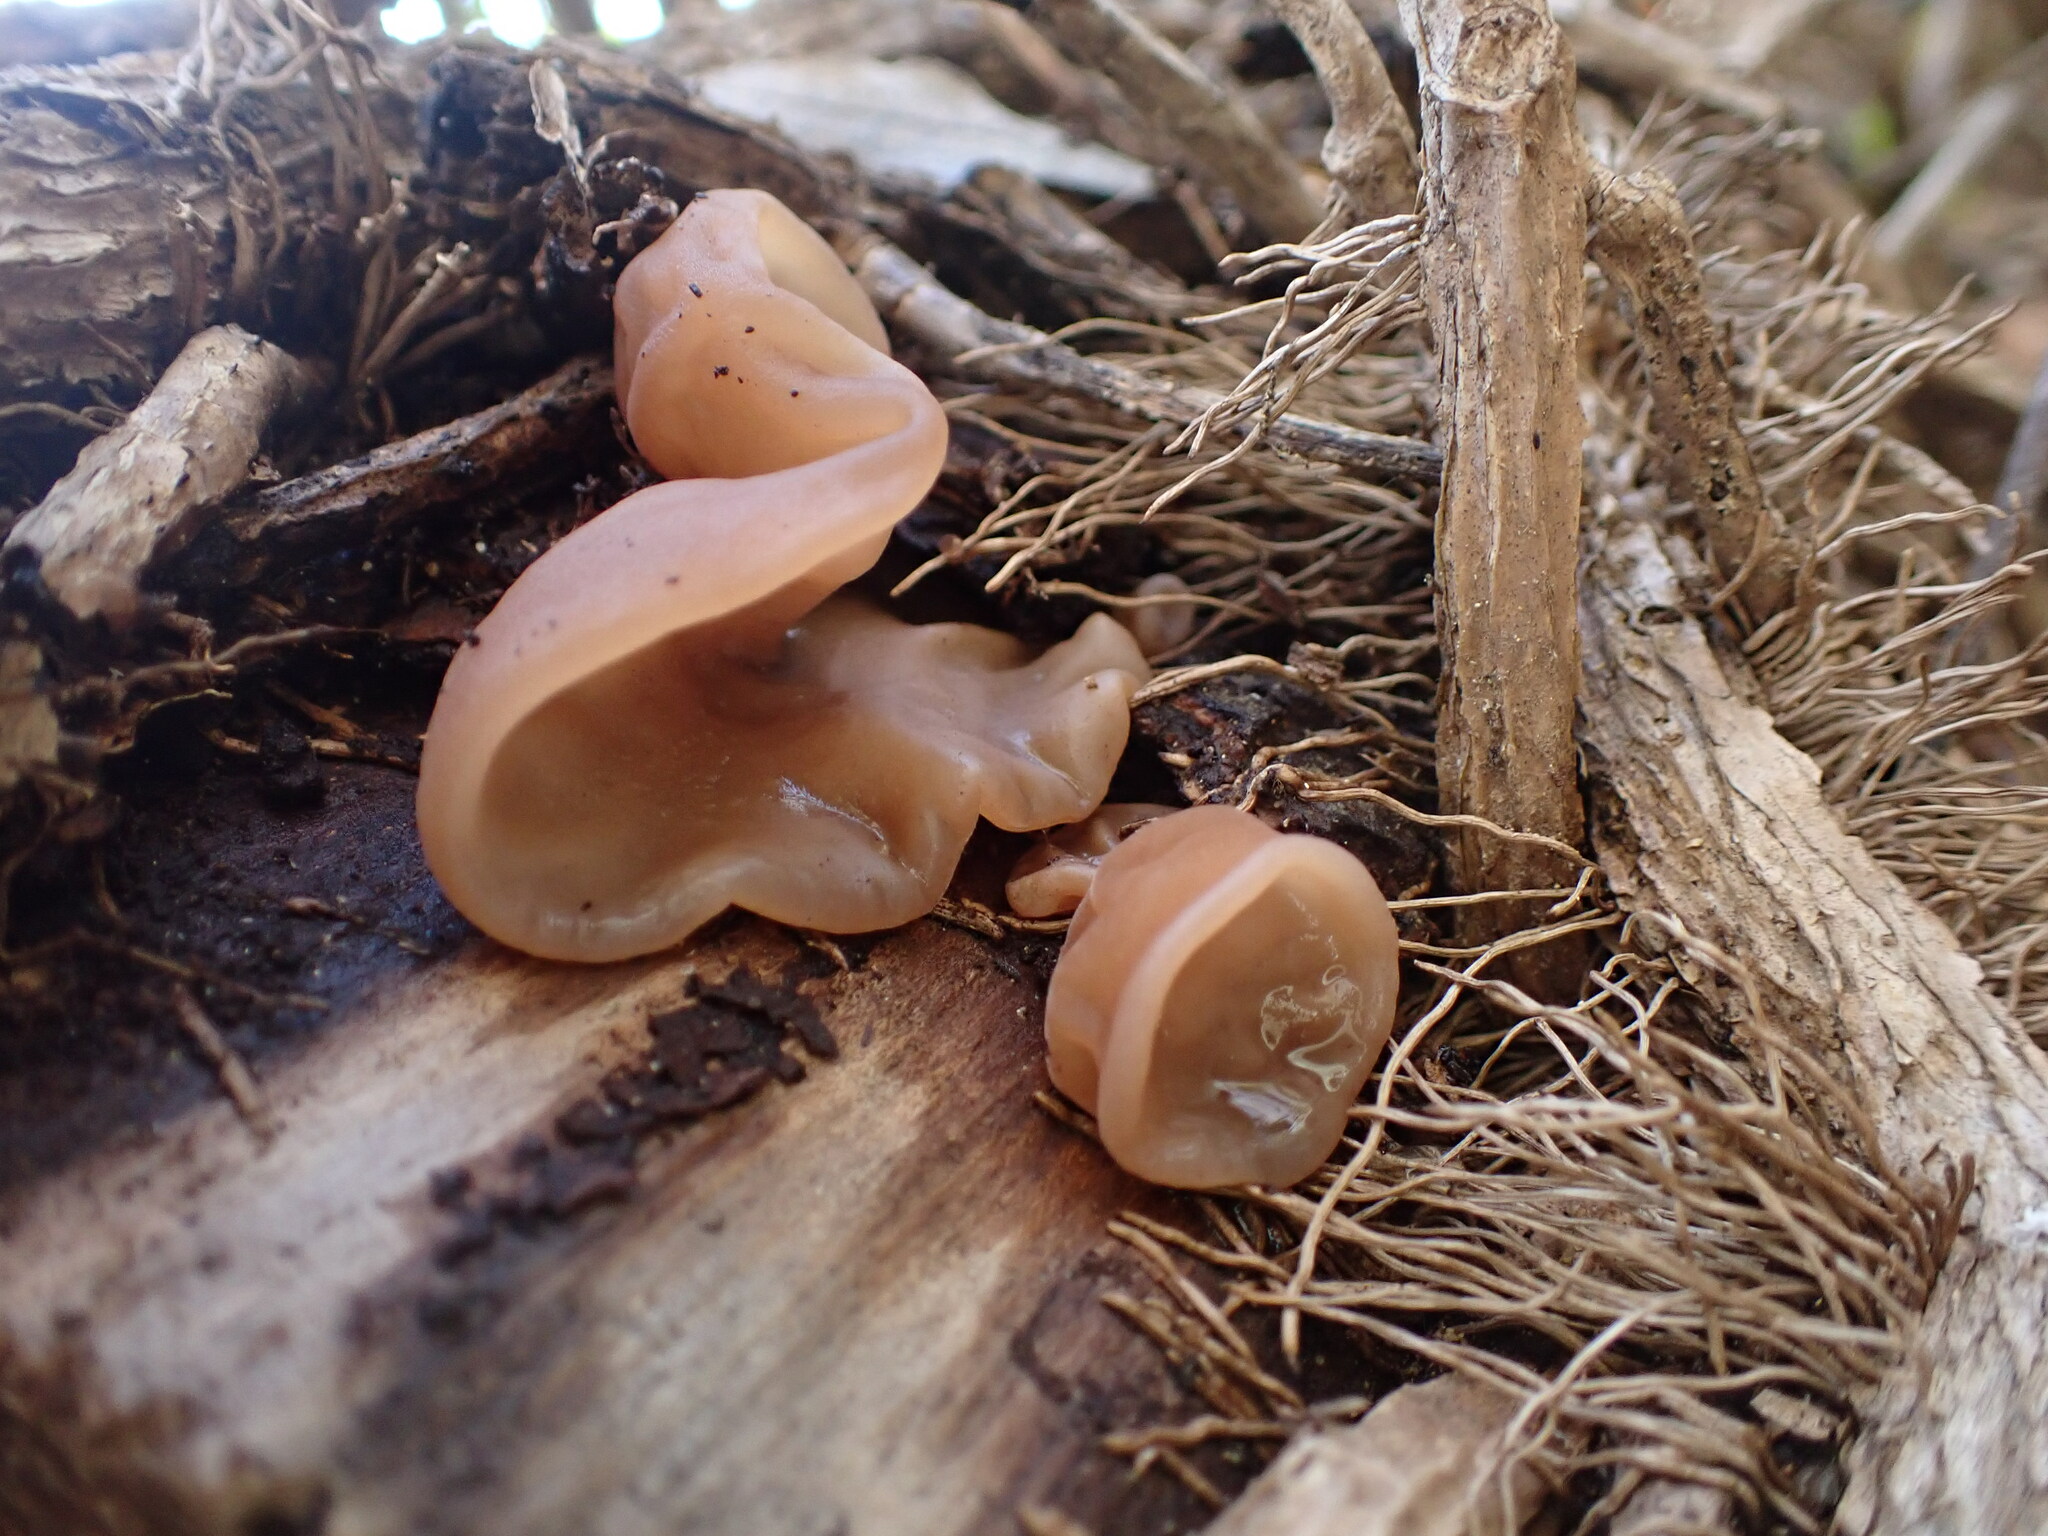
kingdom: Fungi
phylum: Basidiomycota
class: Agaricomycetes
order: Auriculariales
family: Auriculariaceae
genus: Auricularia
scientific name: Auricularia auricula-judae
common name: Jelly ear
